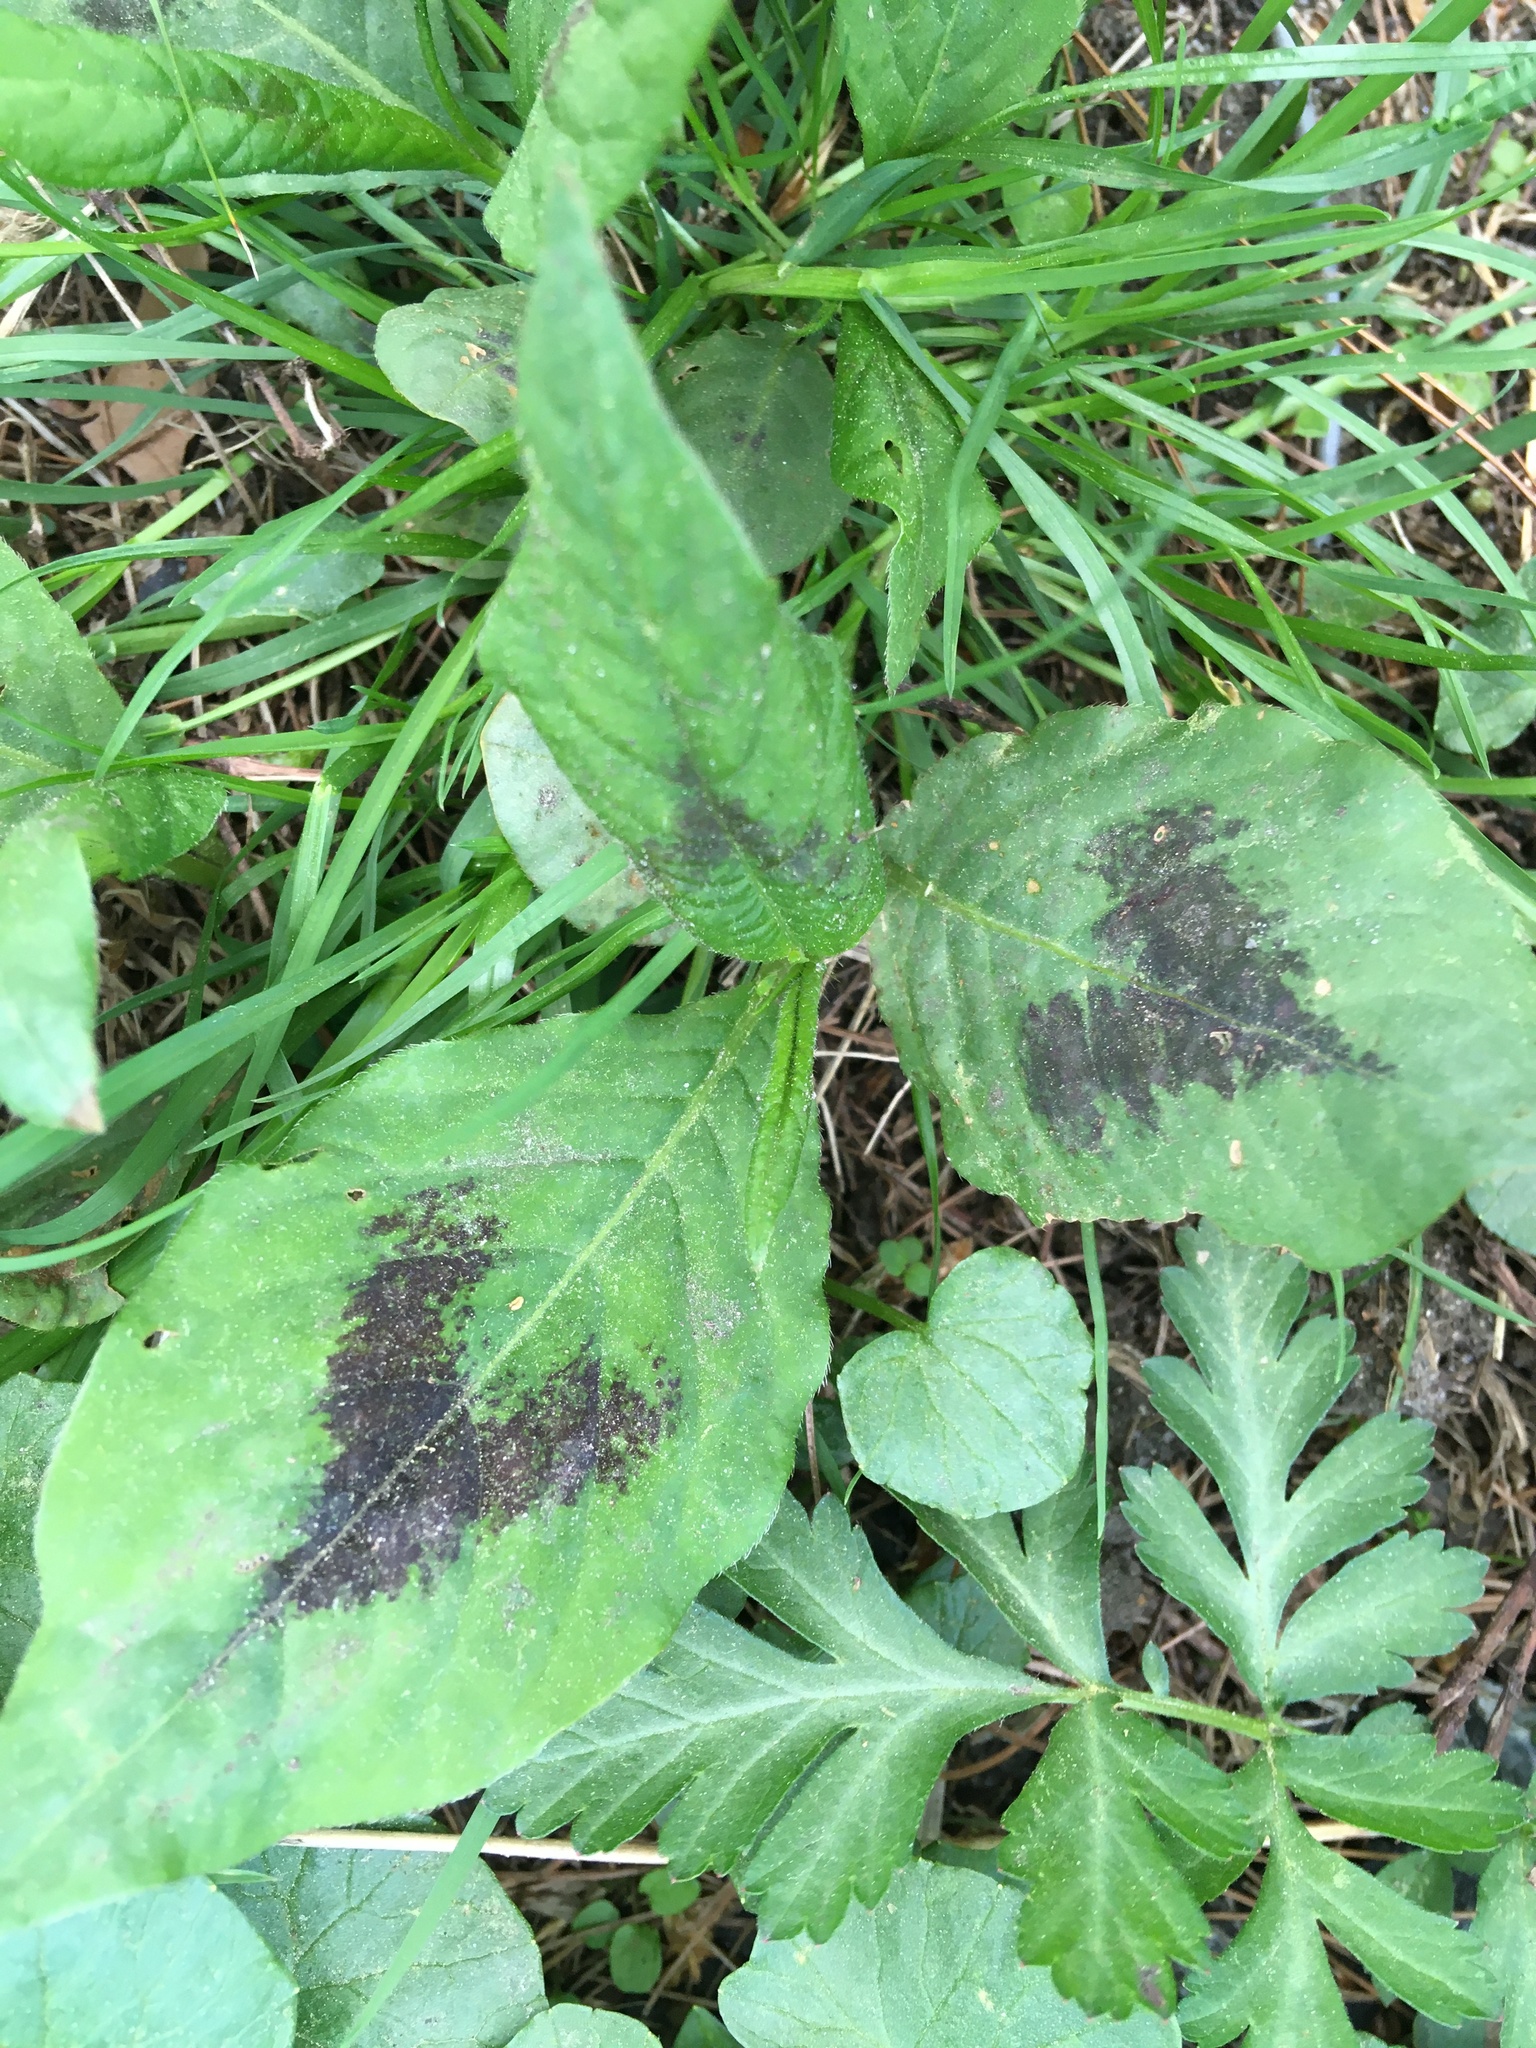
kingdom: Plantae
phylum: Tracheophyta
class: Magnoliopsida
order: Caryophyllales
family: Polygonaceae
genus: Persicaria
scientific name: Persicaria virginiana
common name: Jumpseed
